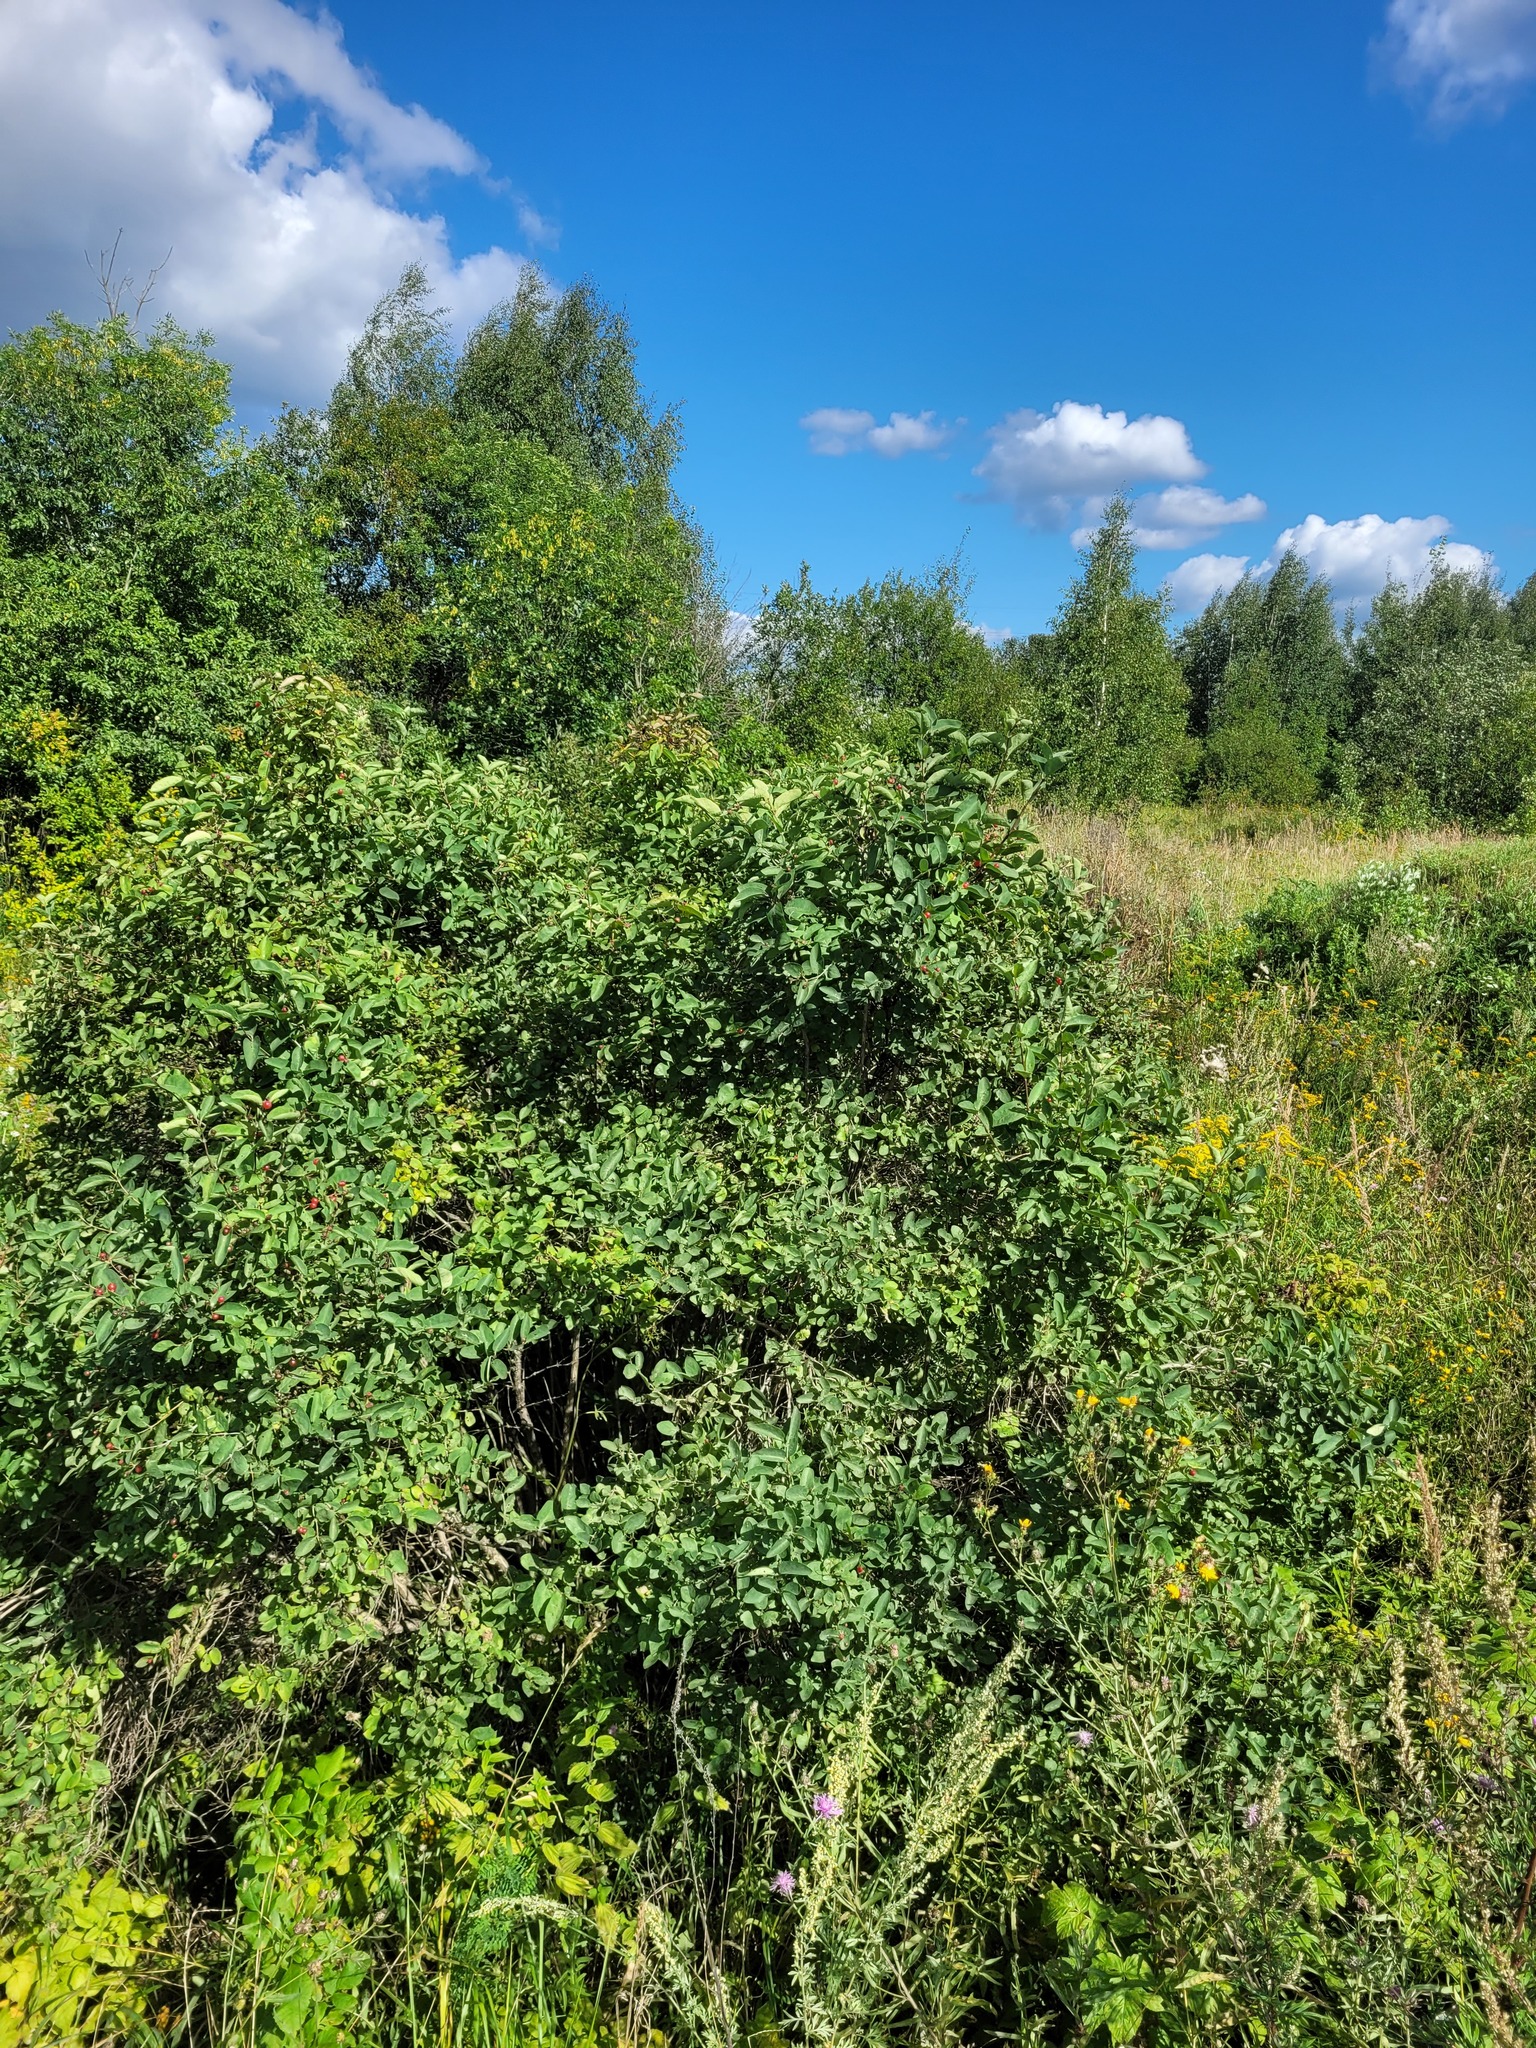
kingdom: Plantae
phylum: Tracheophyta
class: Magnoliopsida
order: Dipsacales
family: Caprifoliaceae
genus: Lonicera
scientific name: Lonicera tatarica
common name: Tatarian honeysuckle
